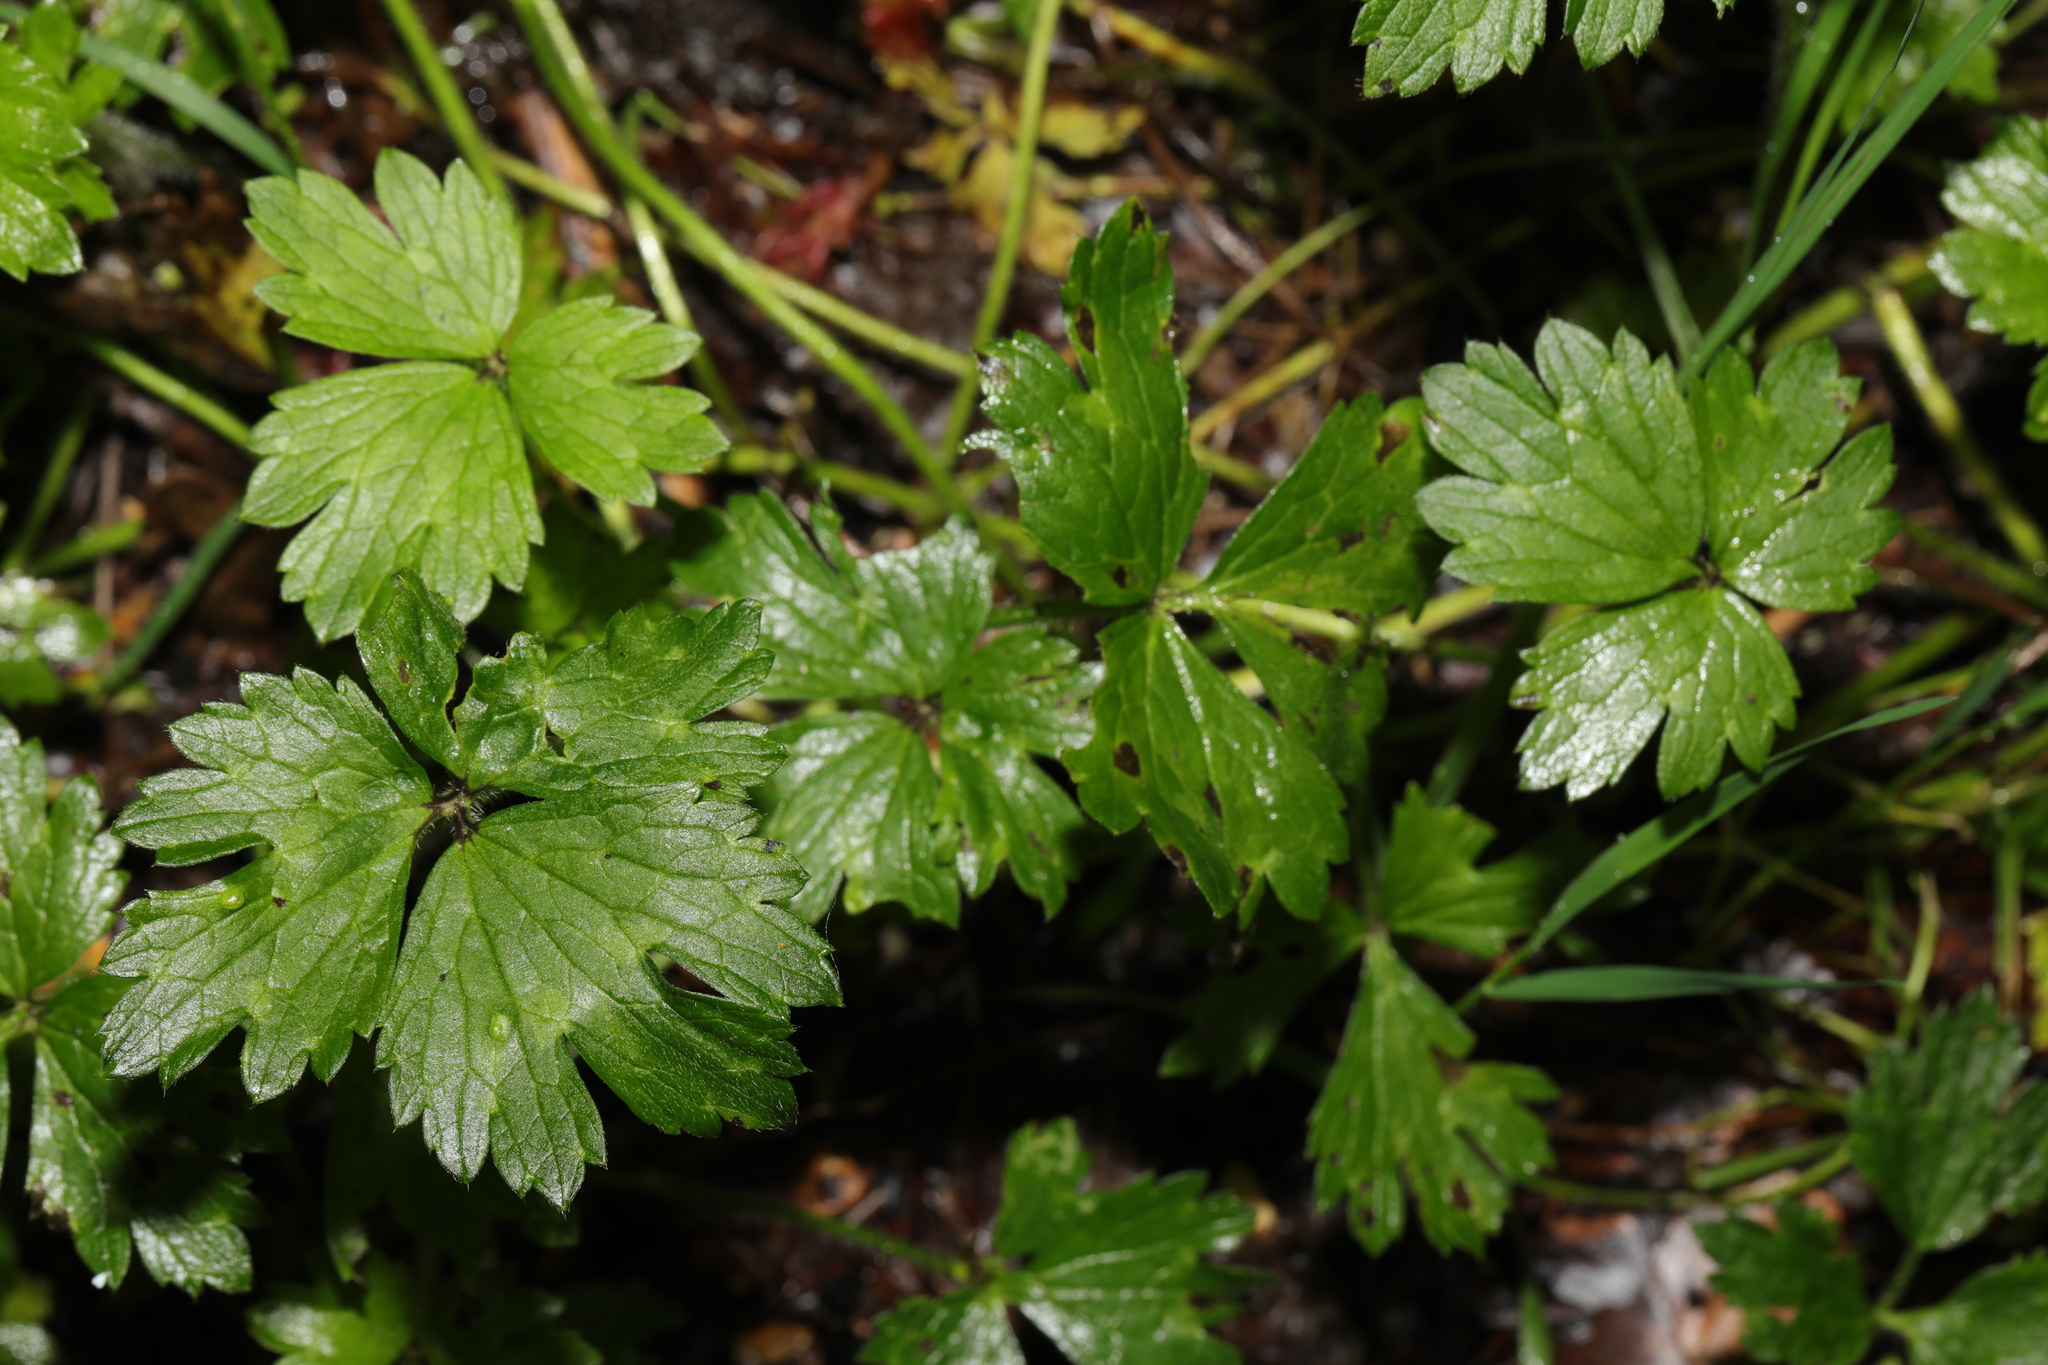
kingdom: Plantae
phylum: Tracheophyta
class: Magnoliopsida
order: Ranunculales
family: Ranunculaceae
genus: Ranunculus
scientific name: Ranunculus repens
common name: Creeping buttercup
